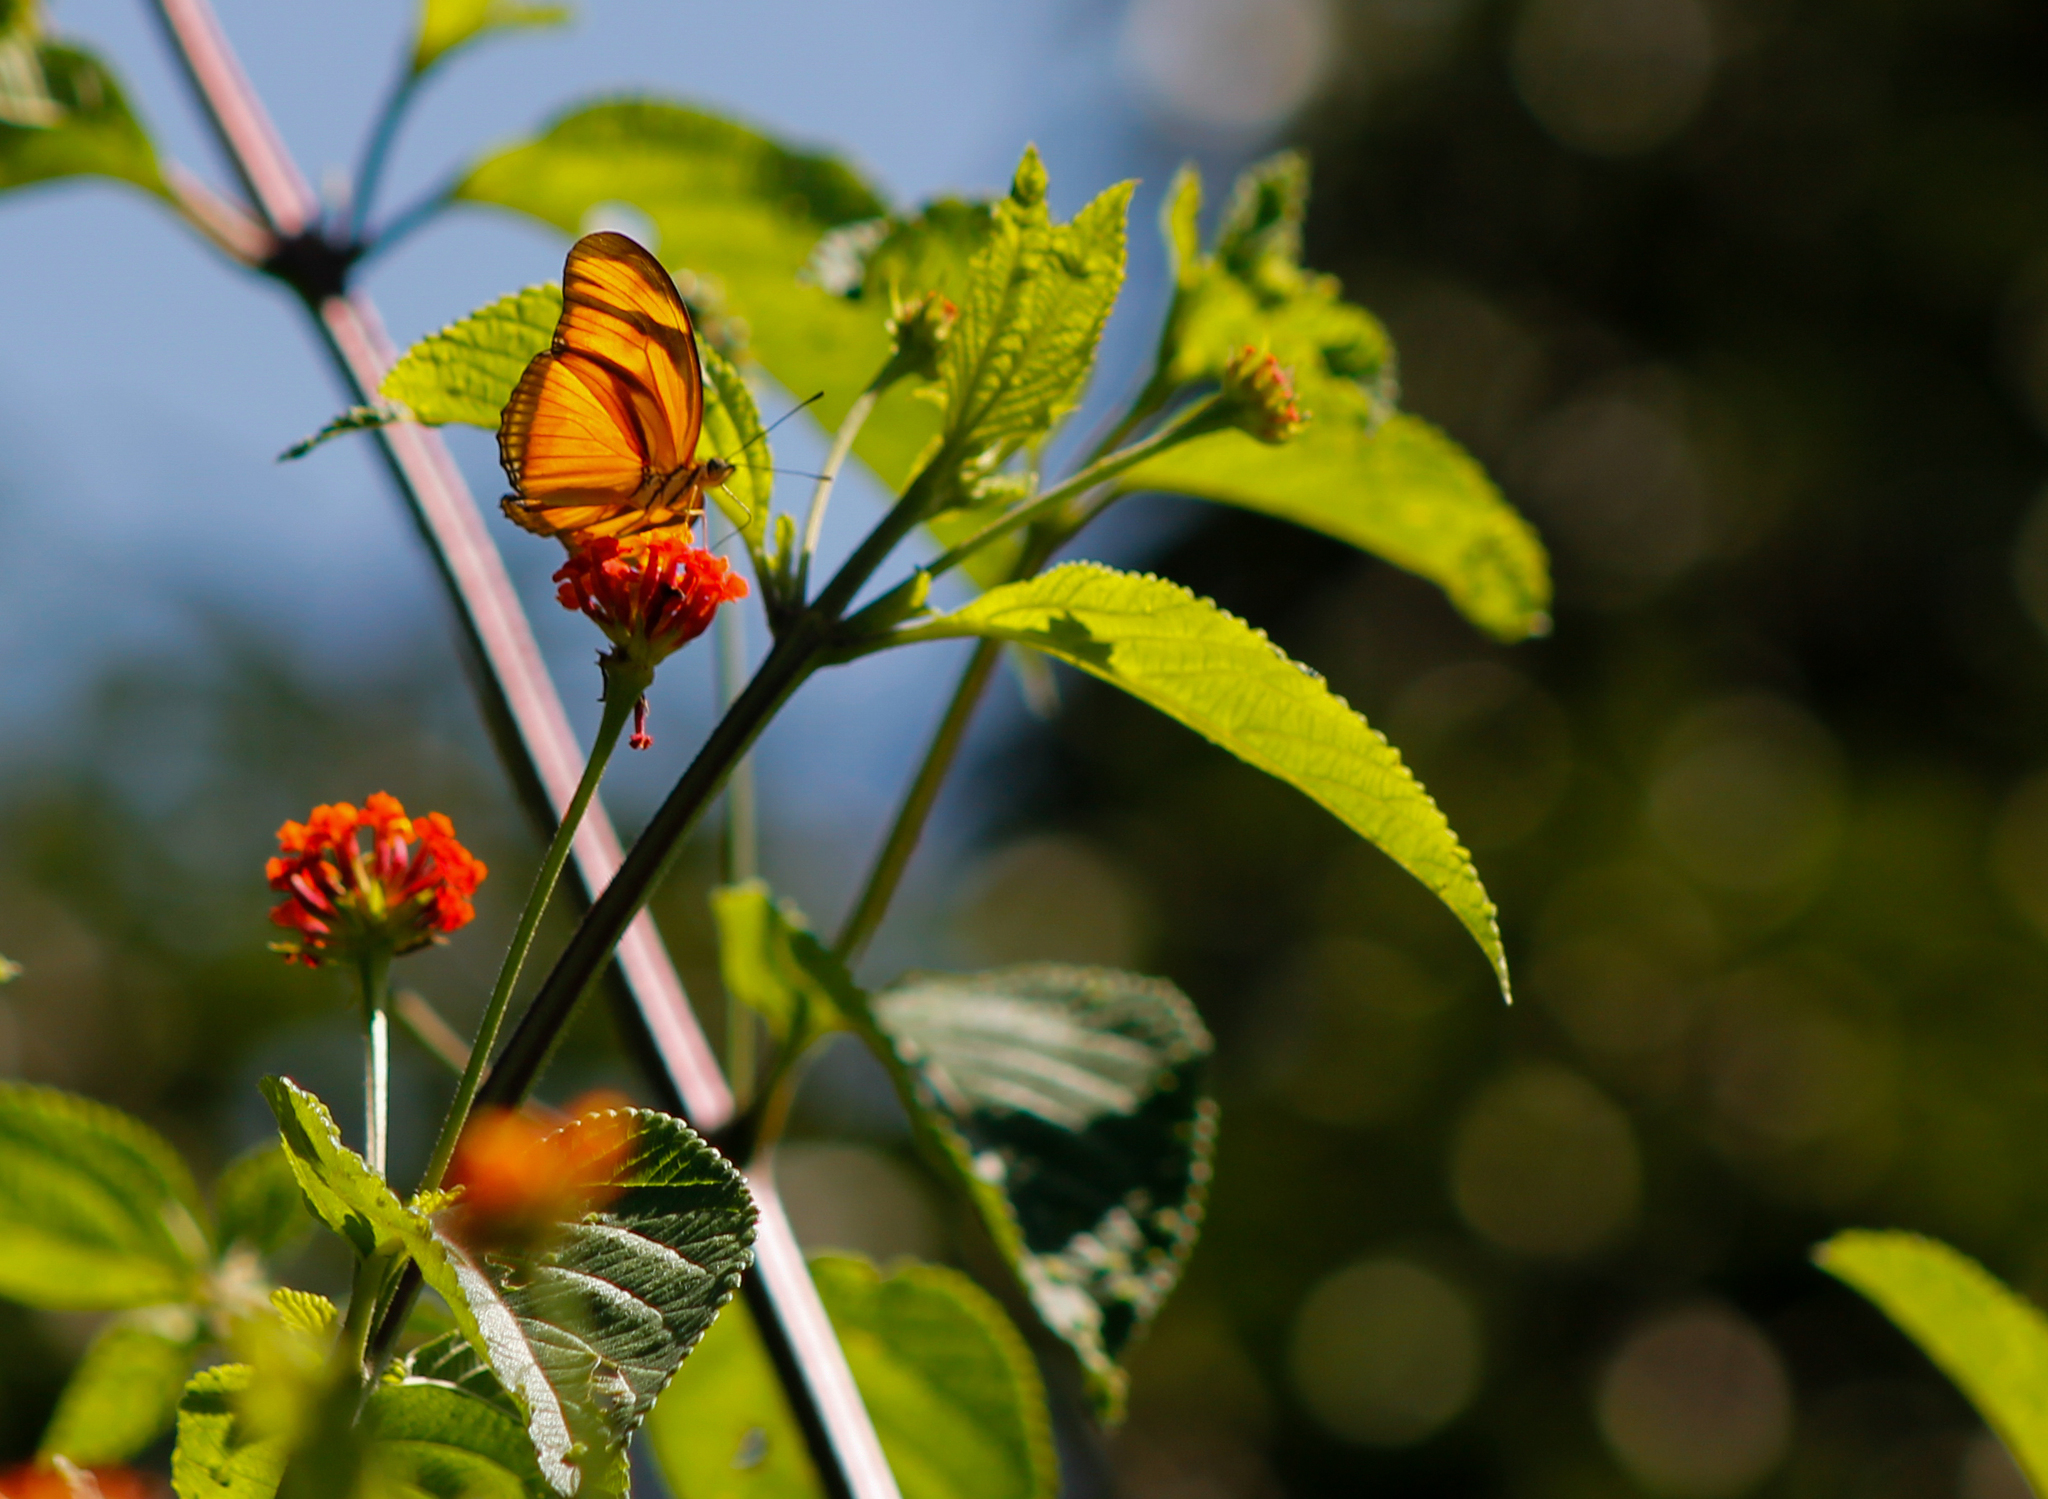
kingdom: Animalia
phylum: Arthropoda
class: Insecta
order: Lepidoptera
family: Nymphalidae
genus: Dryas
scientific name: Dryas iulia
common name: Flambeau
